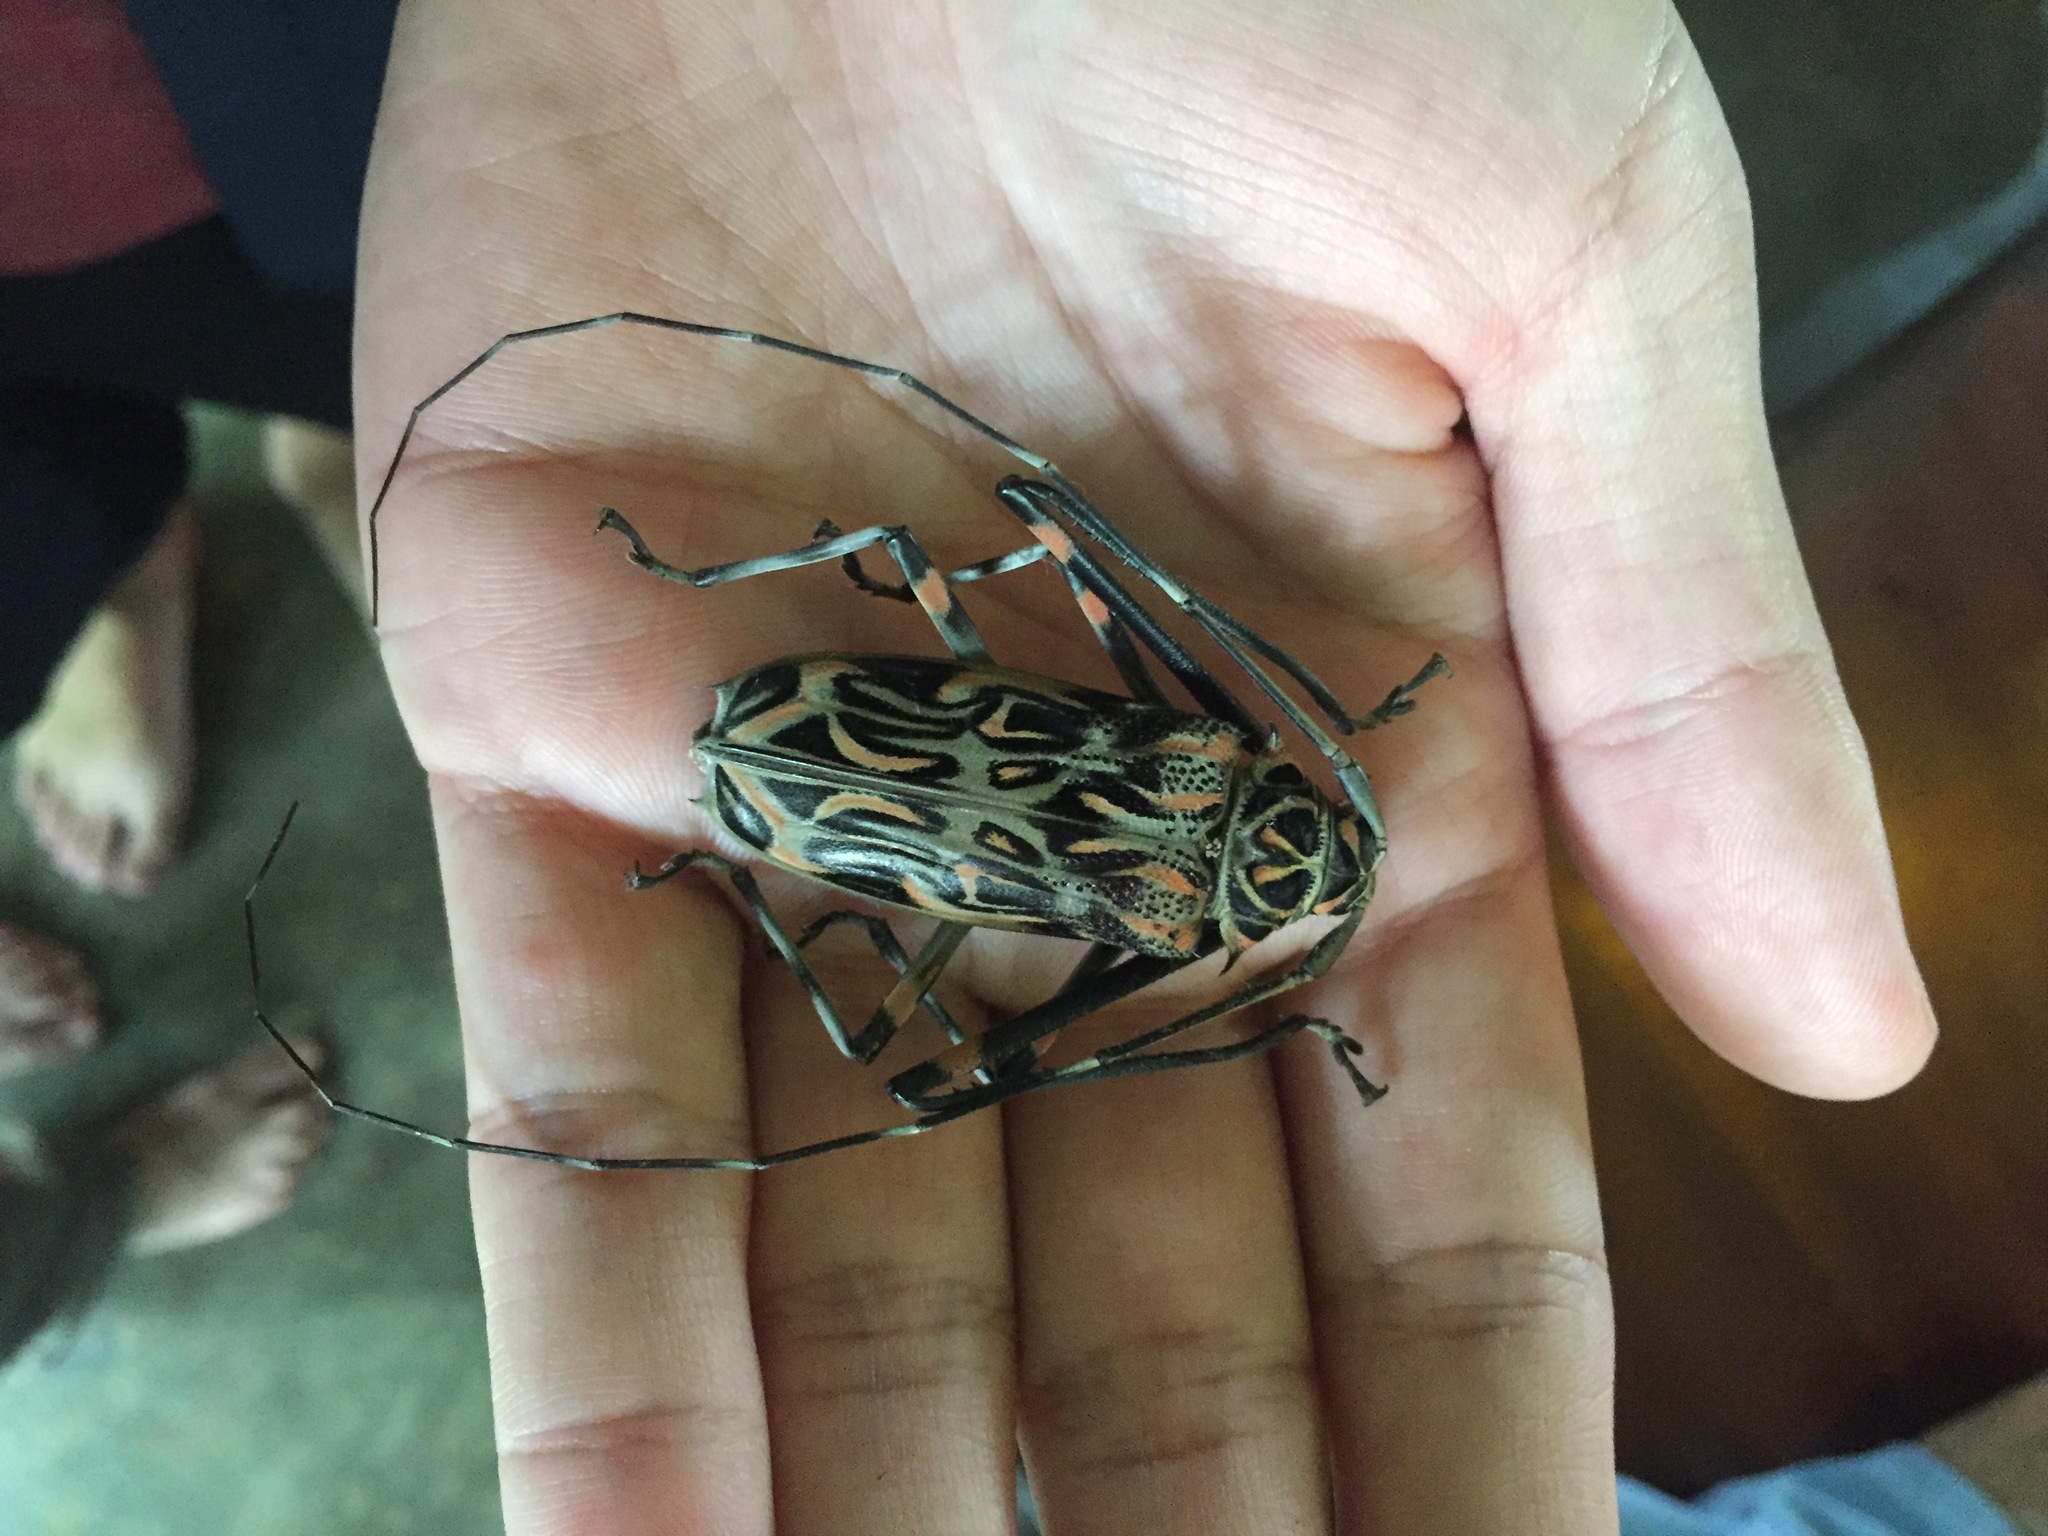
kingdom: Animalia
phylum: Arthropoda
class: Insecta
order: Coleoptera
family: Cerambycidae
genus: Acrocinus
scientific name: Acrocinus longimanus
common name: Arlequin
